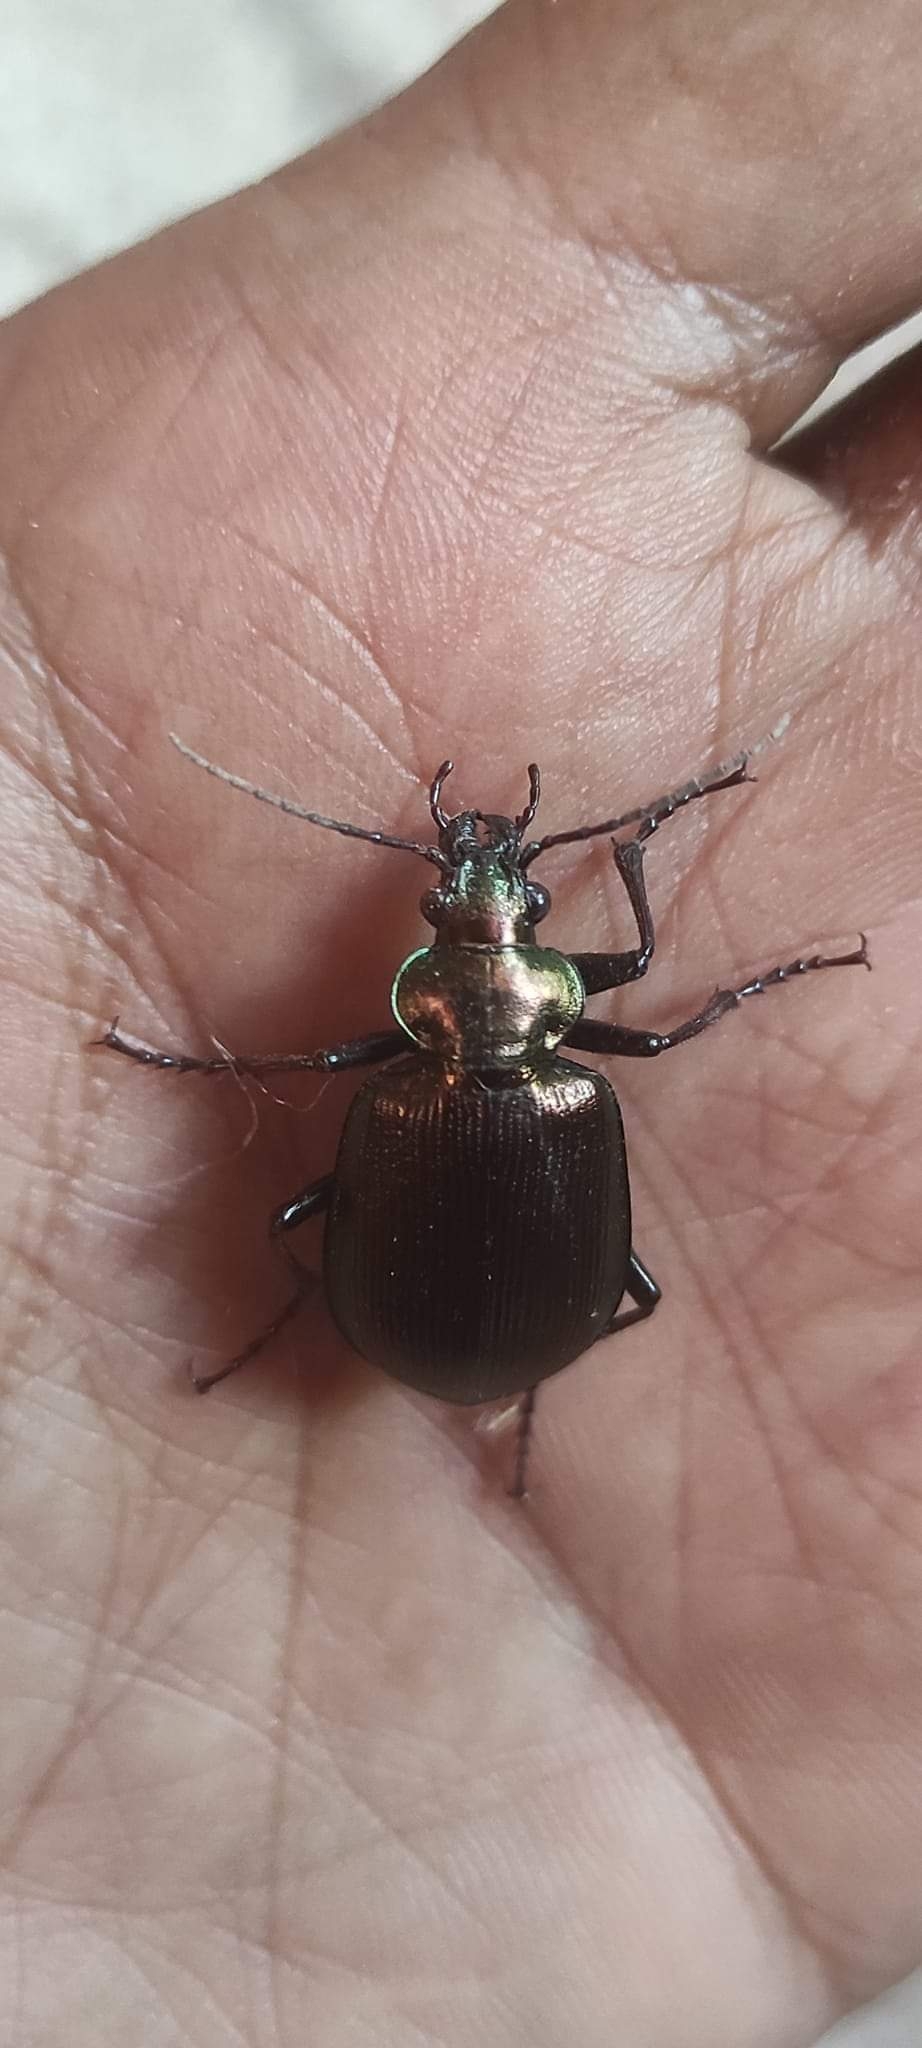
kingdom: Animalia
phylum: Arthropoda
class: Insecta
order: Coleoptera
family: Carabidae
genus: Calosoma
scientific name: Calosoma oceanicum
